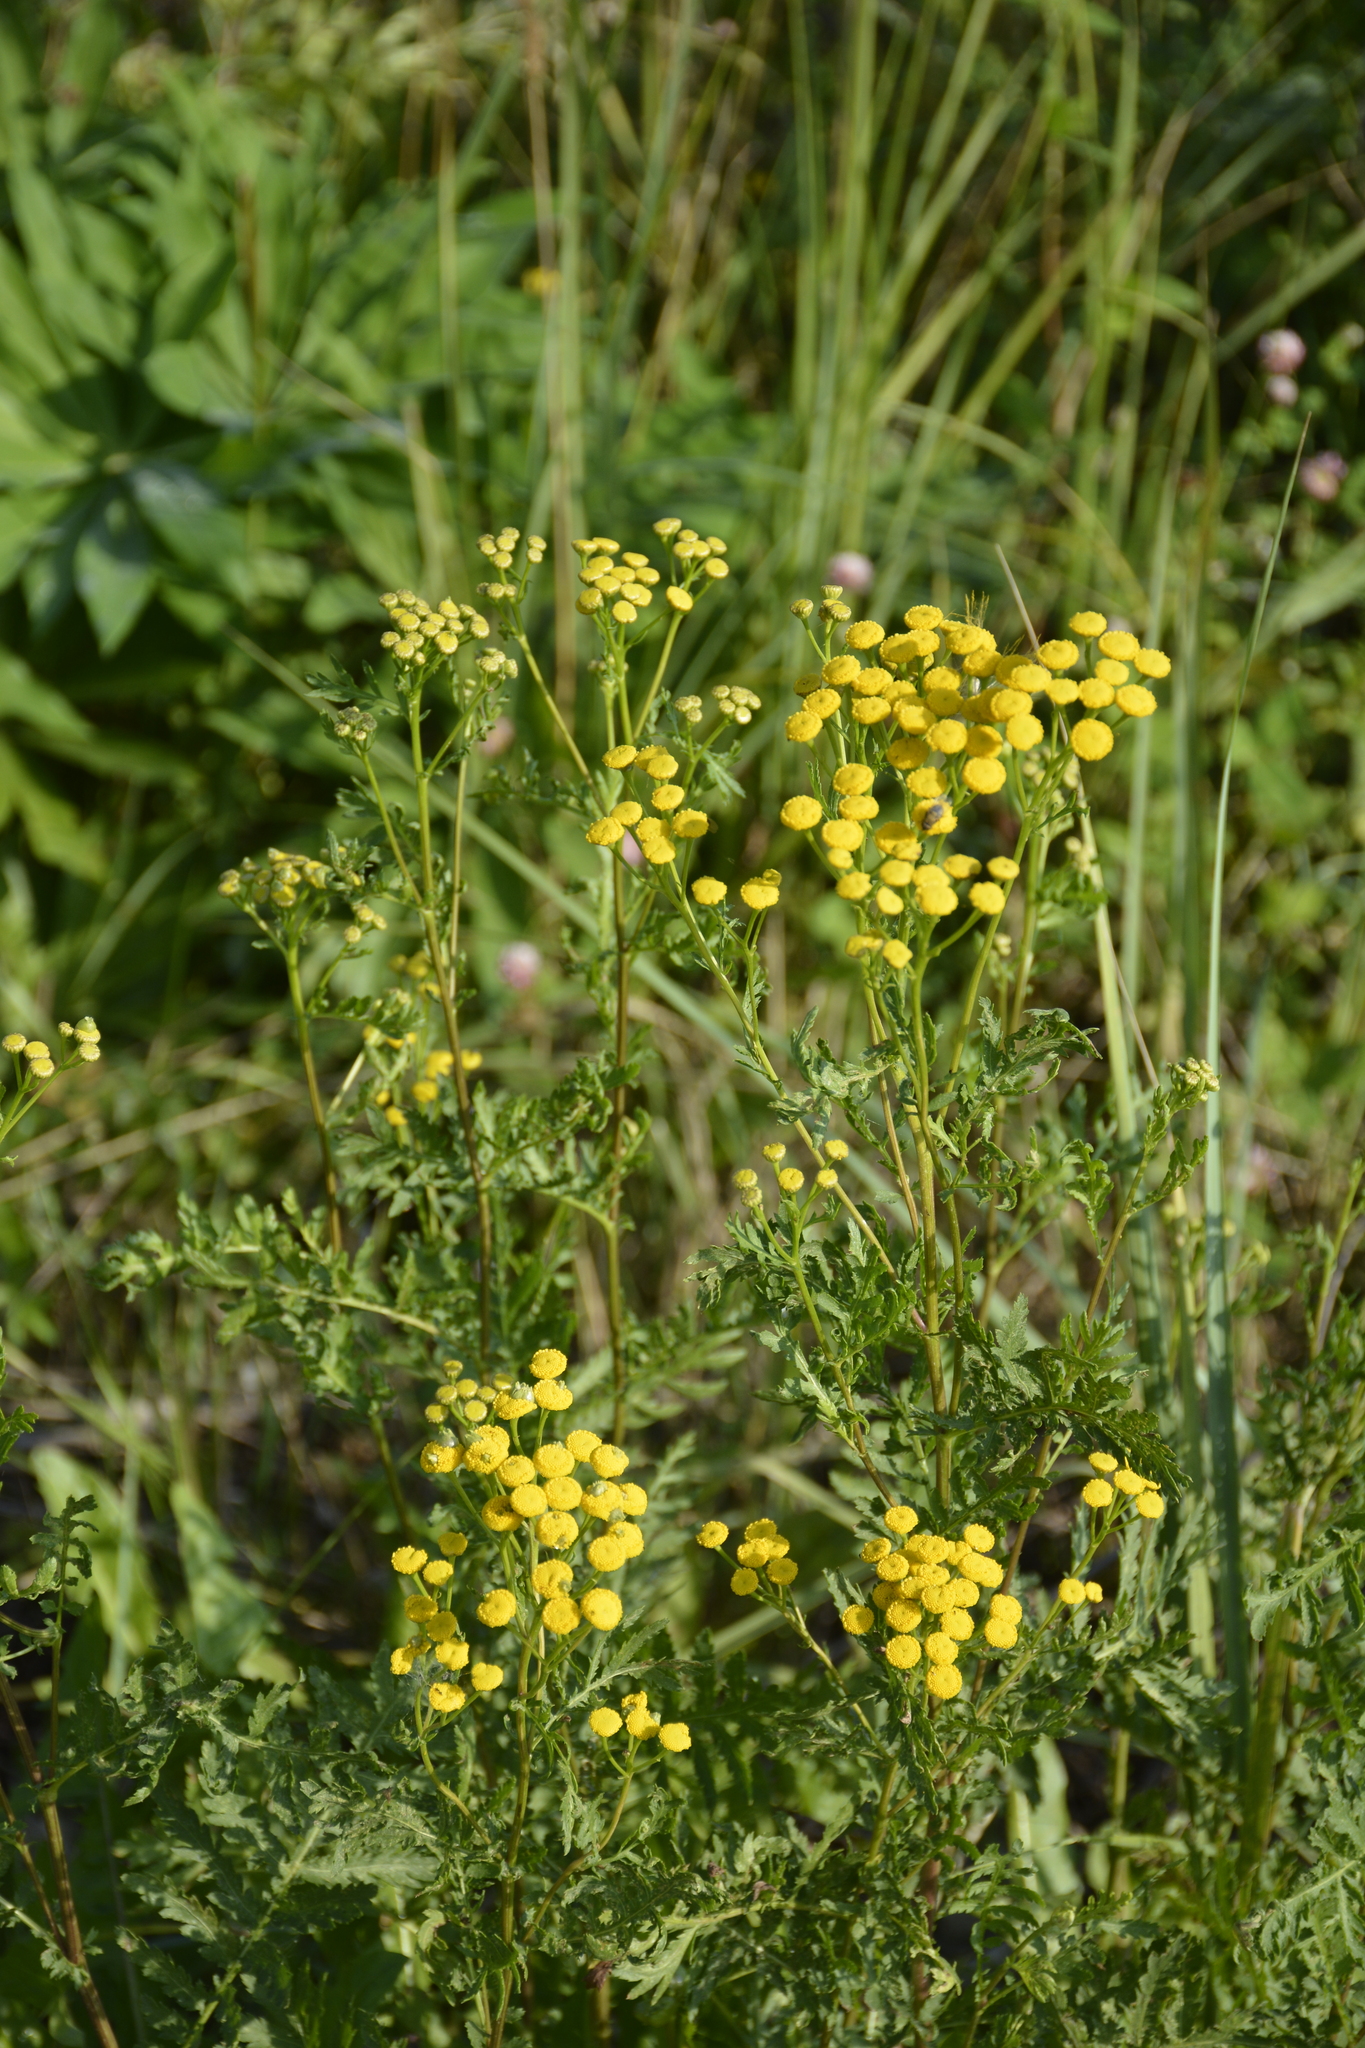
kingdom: Plantae
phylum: Tracheophyta
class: Magnoliopsida
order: Asterales
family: Asteraceae
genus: Tanacetum
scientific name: Tanacetum vulgare
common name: Common tansy
